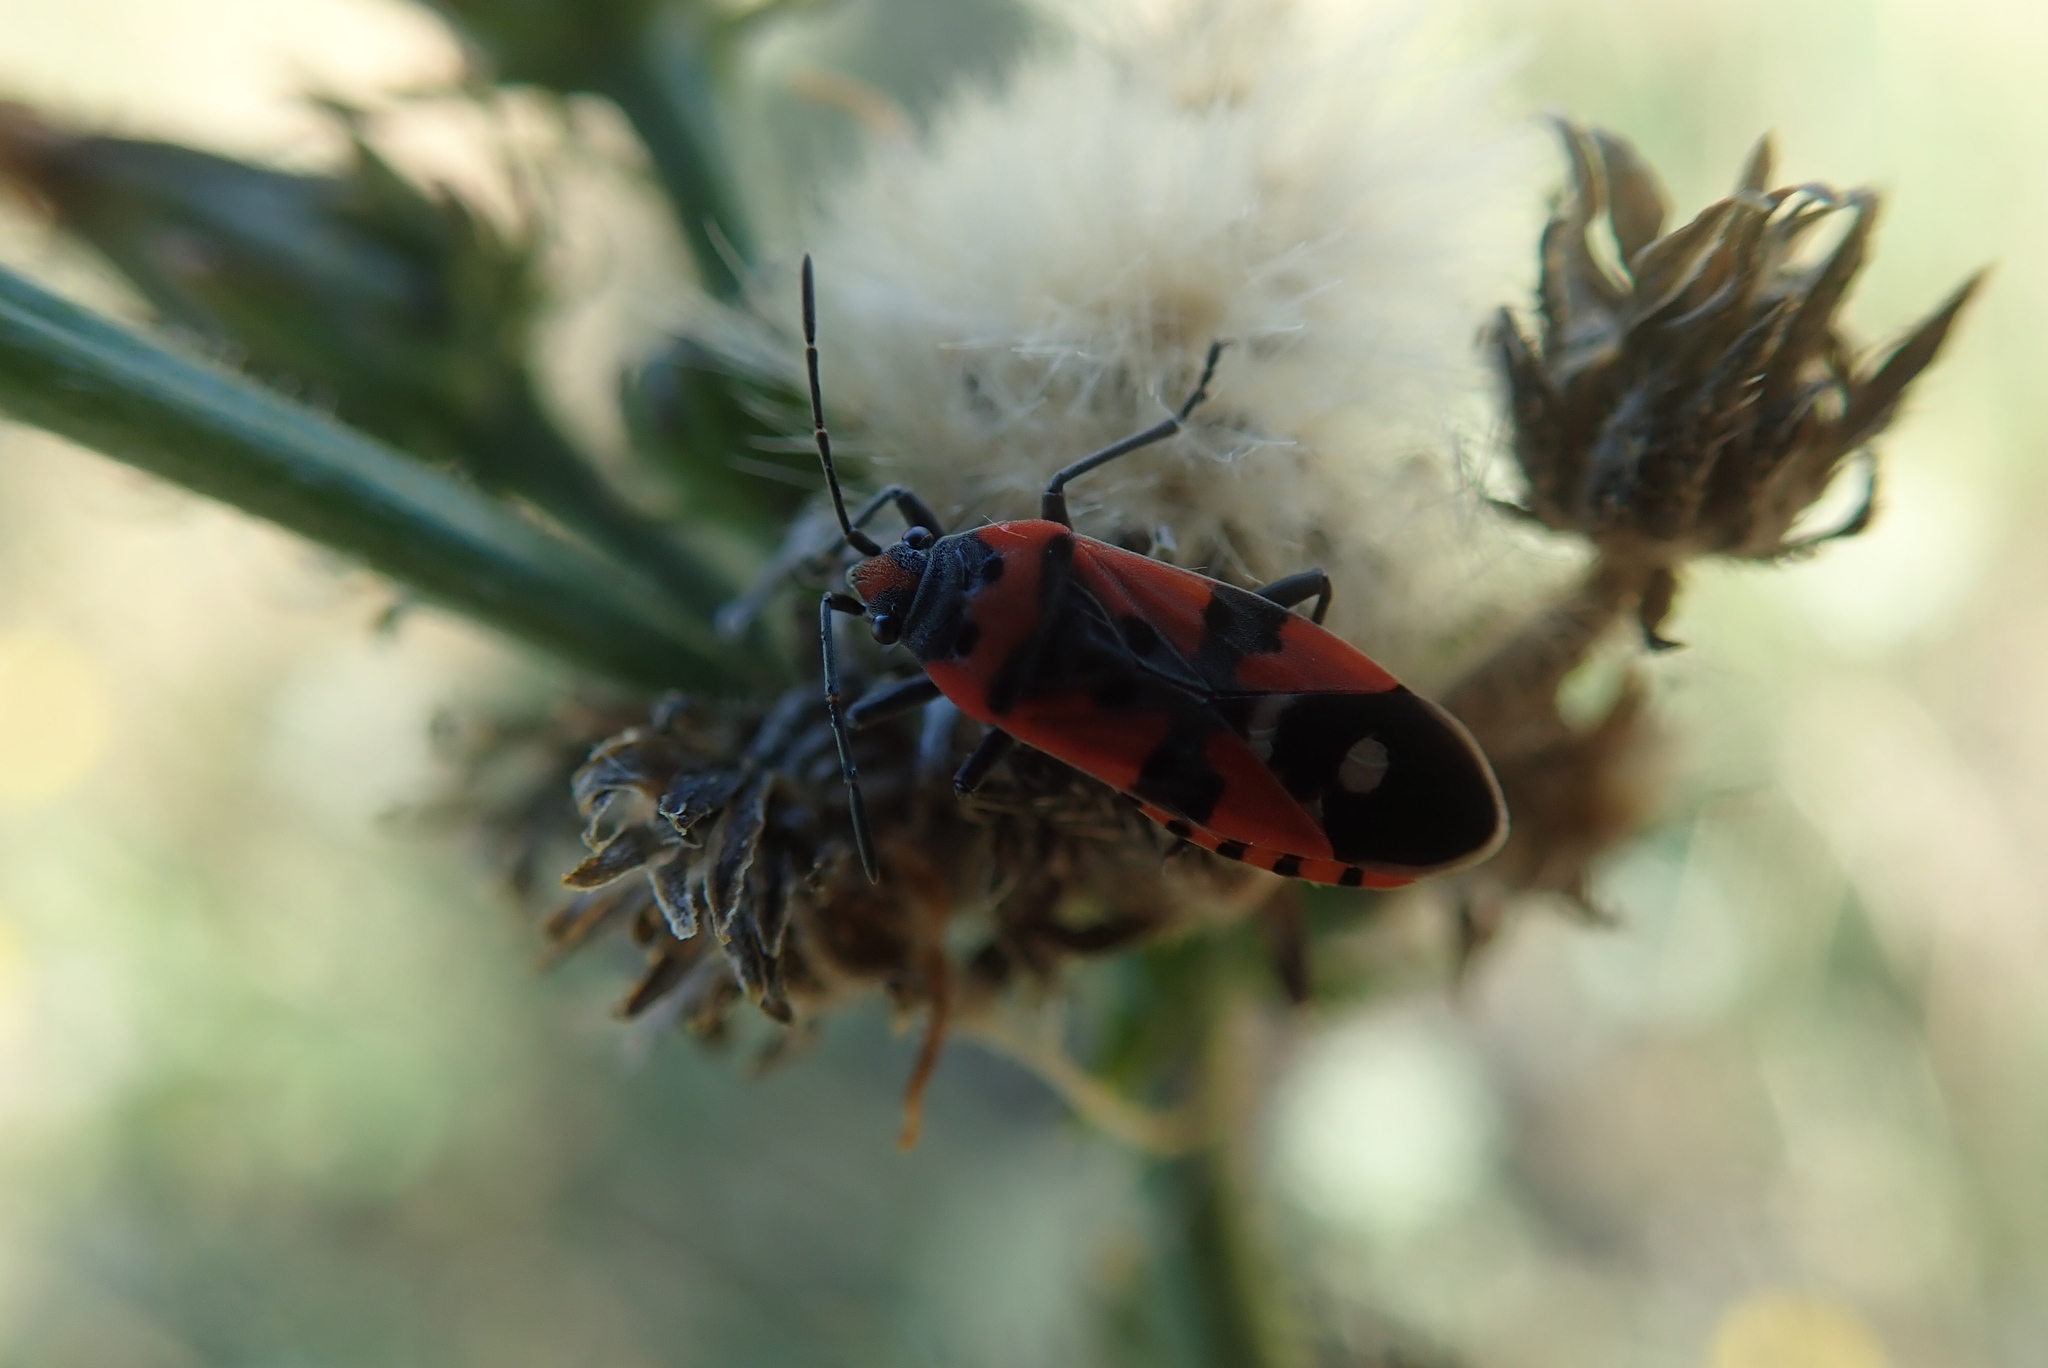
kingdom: Animalia
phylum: Arthropoda
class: Insecta
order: Hemiptera
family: Lygaeidae
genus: Lygaeus
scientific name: Lygaeus equestris
